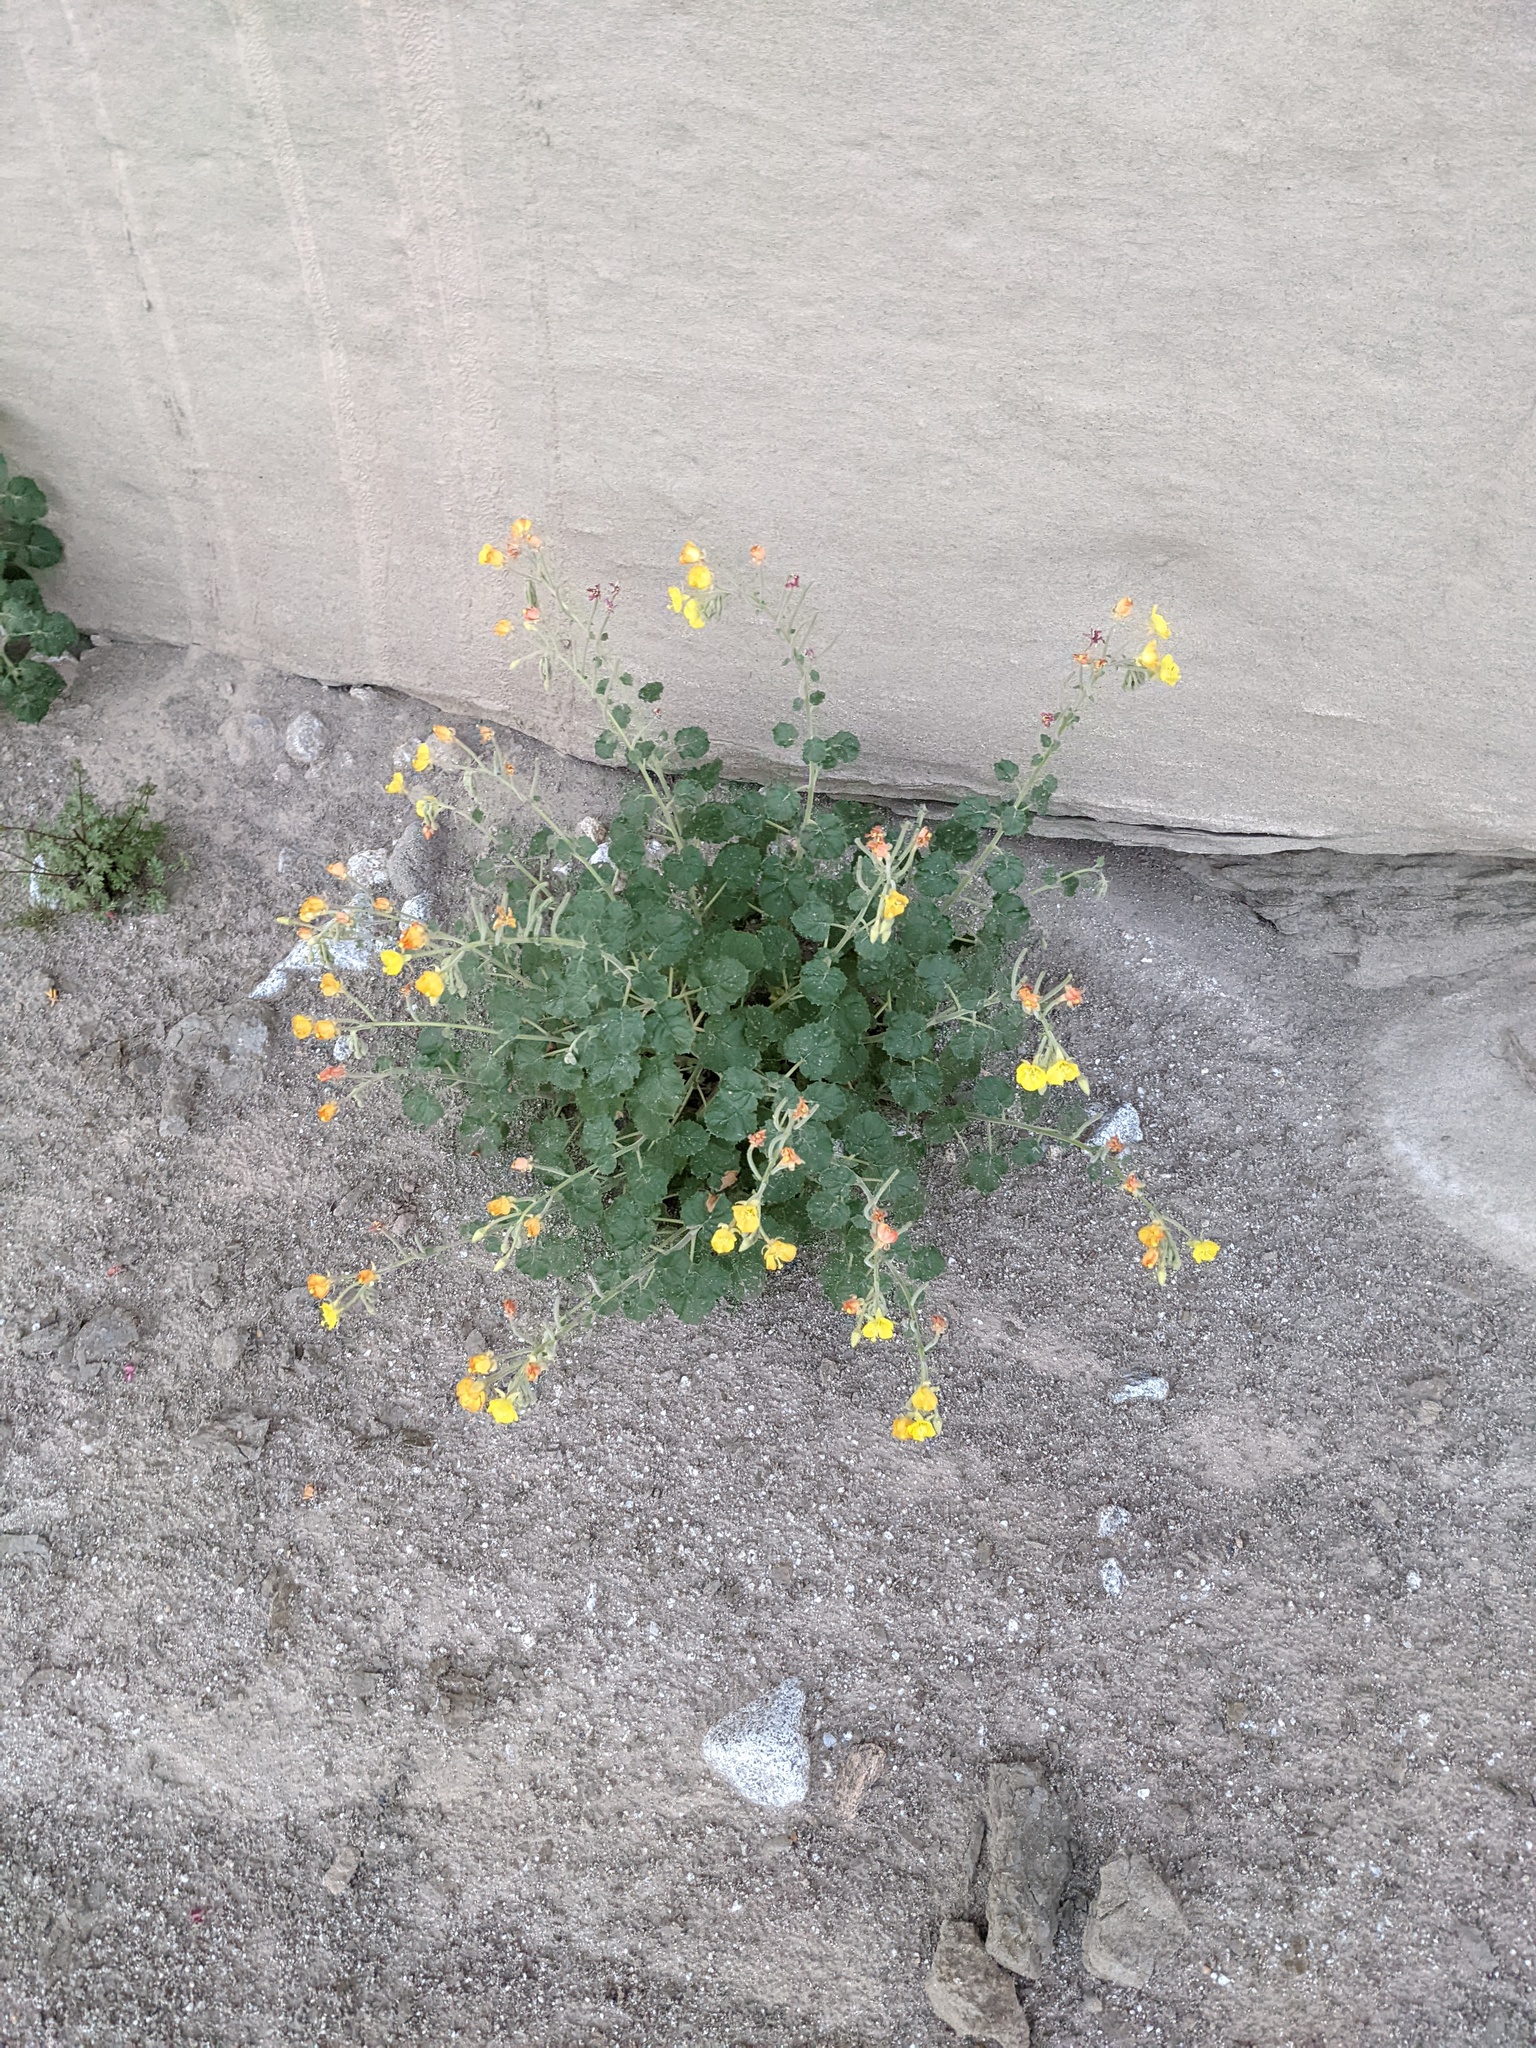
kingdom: Plantae
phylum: Tracheophyta
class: Magnoliopsida
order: Myrtales
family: Onagraceae
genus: Chylismia
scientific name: Chylismia cardiophylla
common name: Heartleaf suncup
